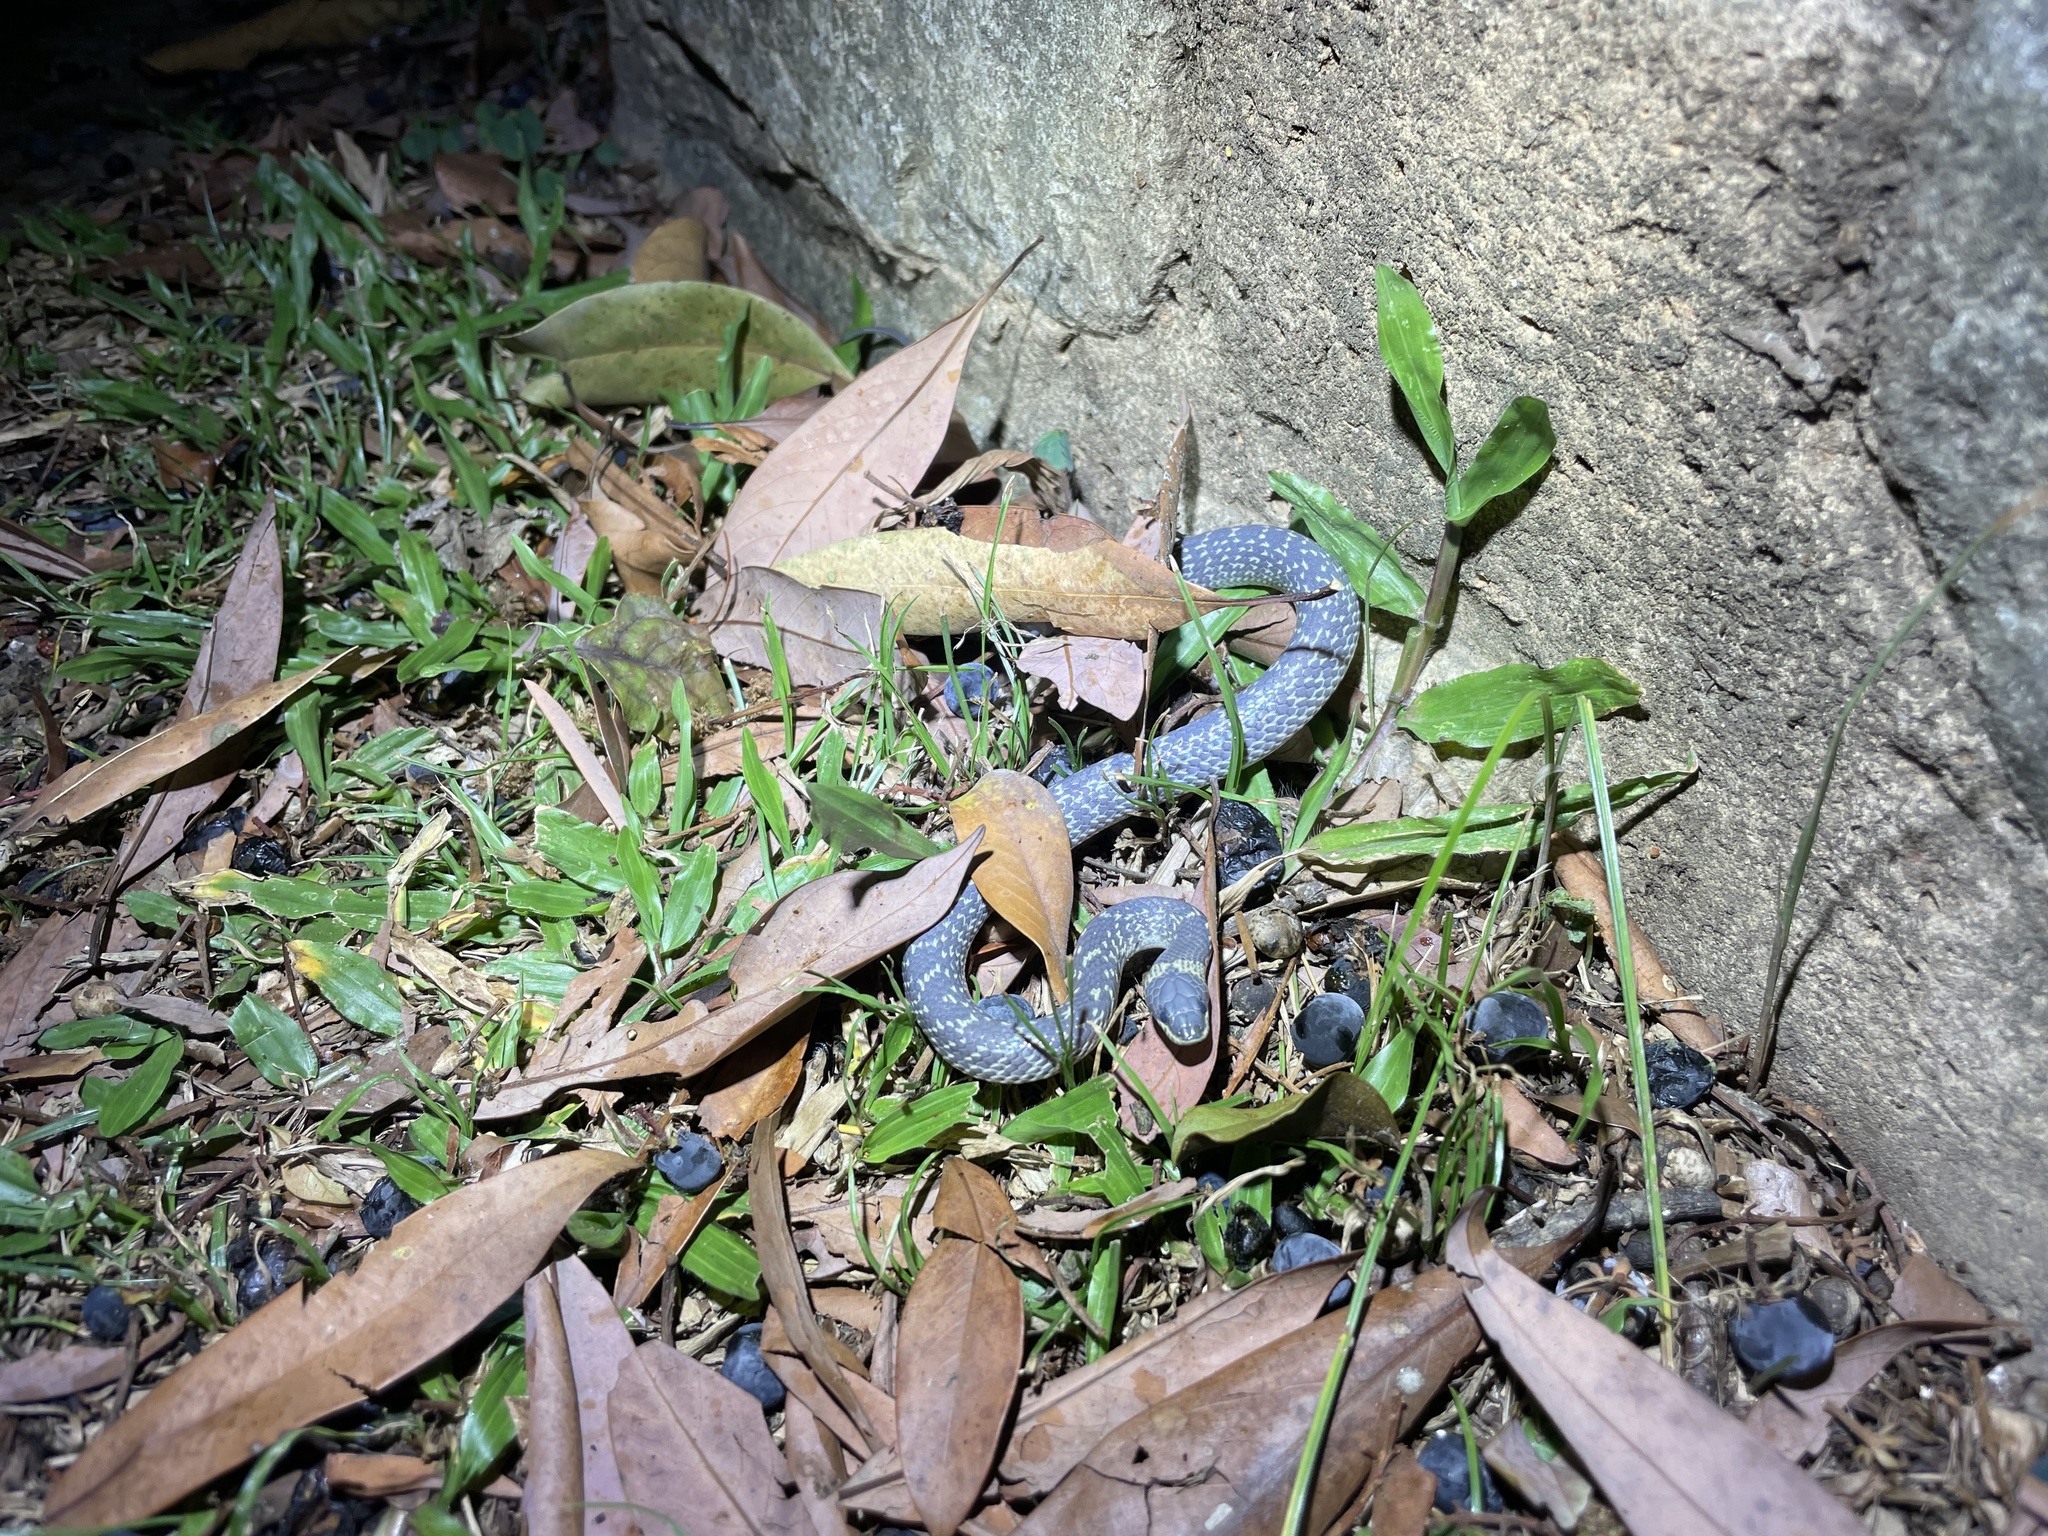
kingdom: Animalia
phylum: Chordata
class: Squamata
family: Colubridae
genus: Lycodon
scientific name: Lycodon capucinus
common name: Common wold snake/house snake
